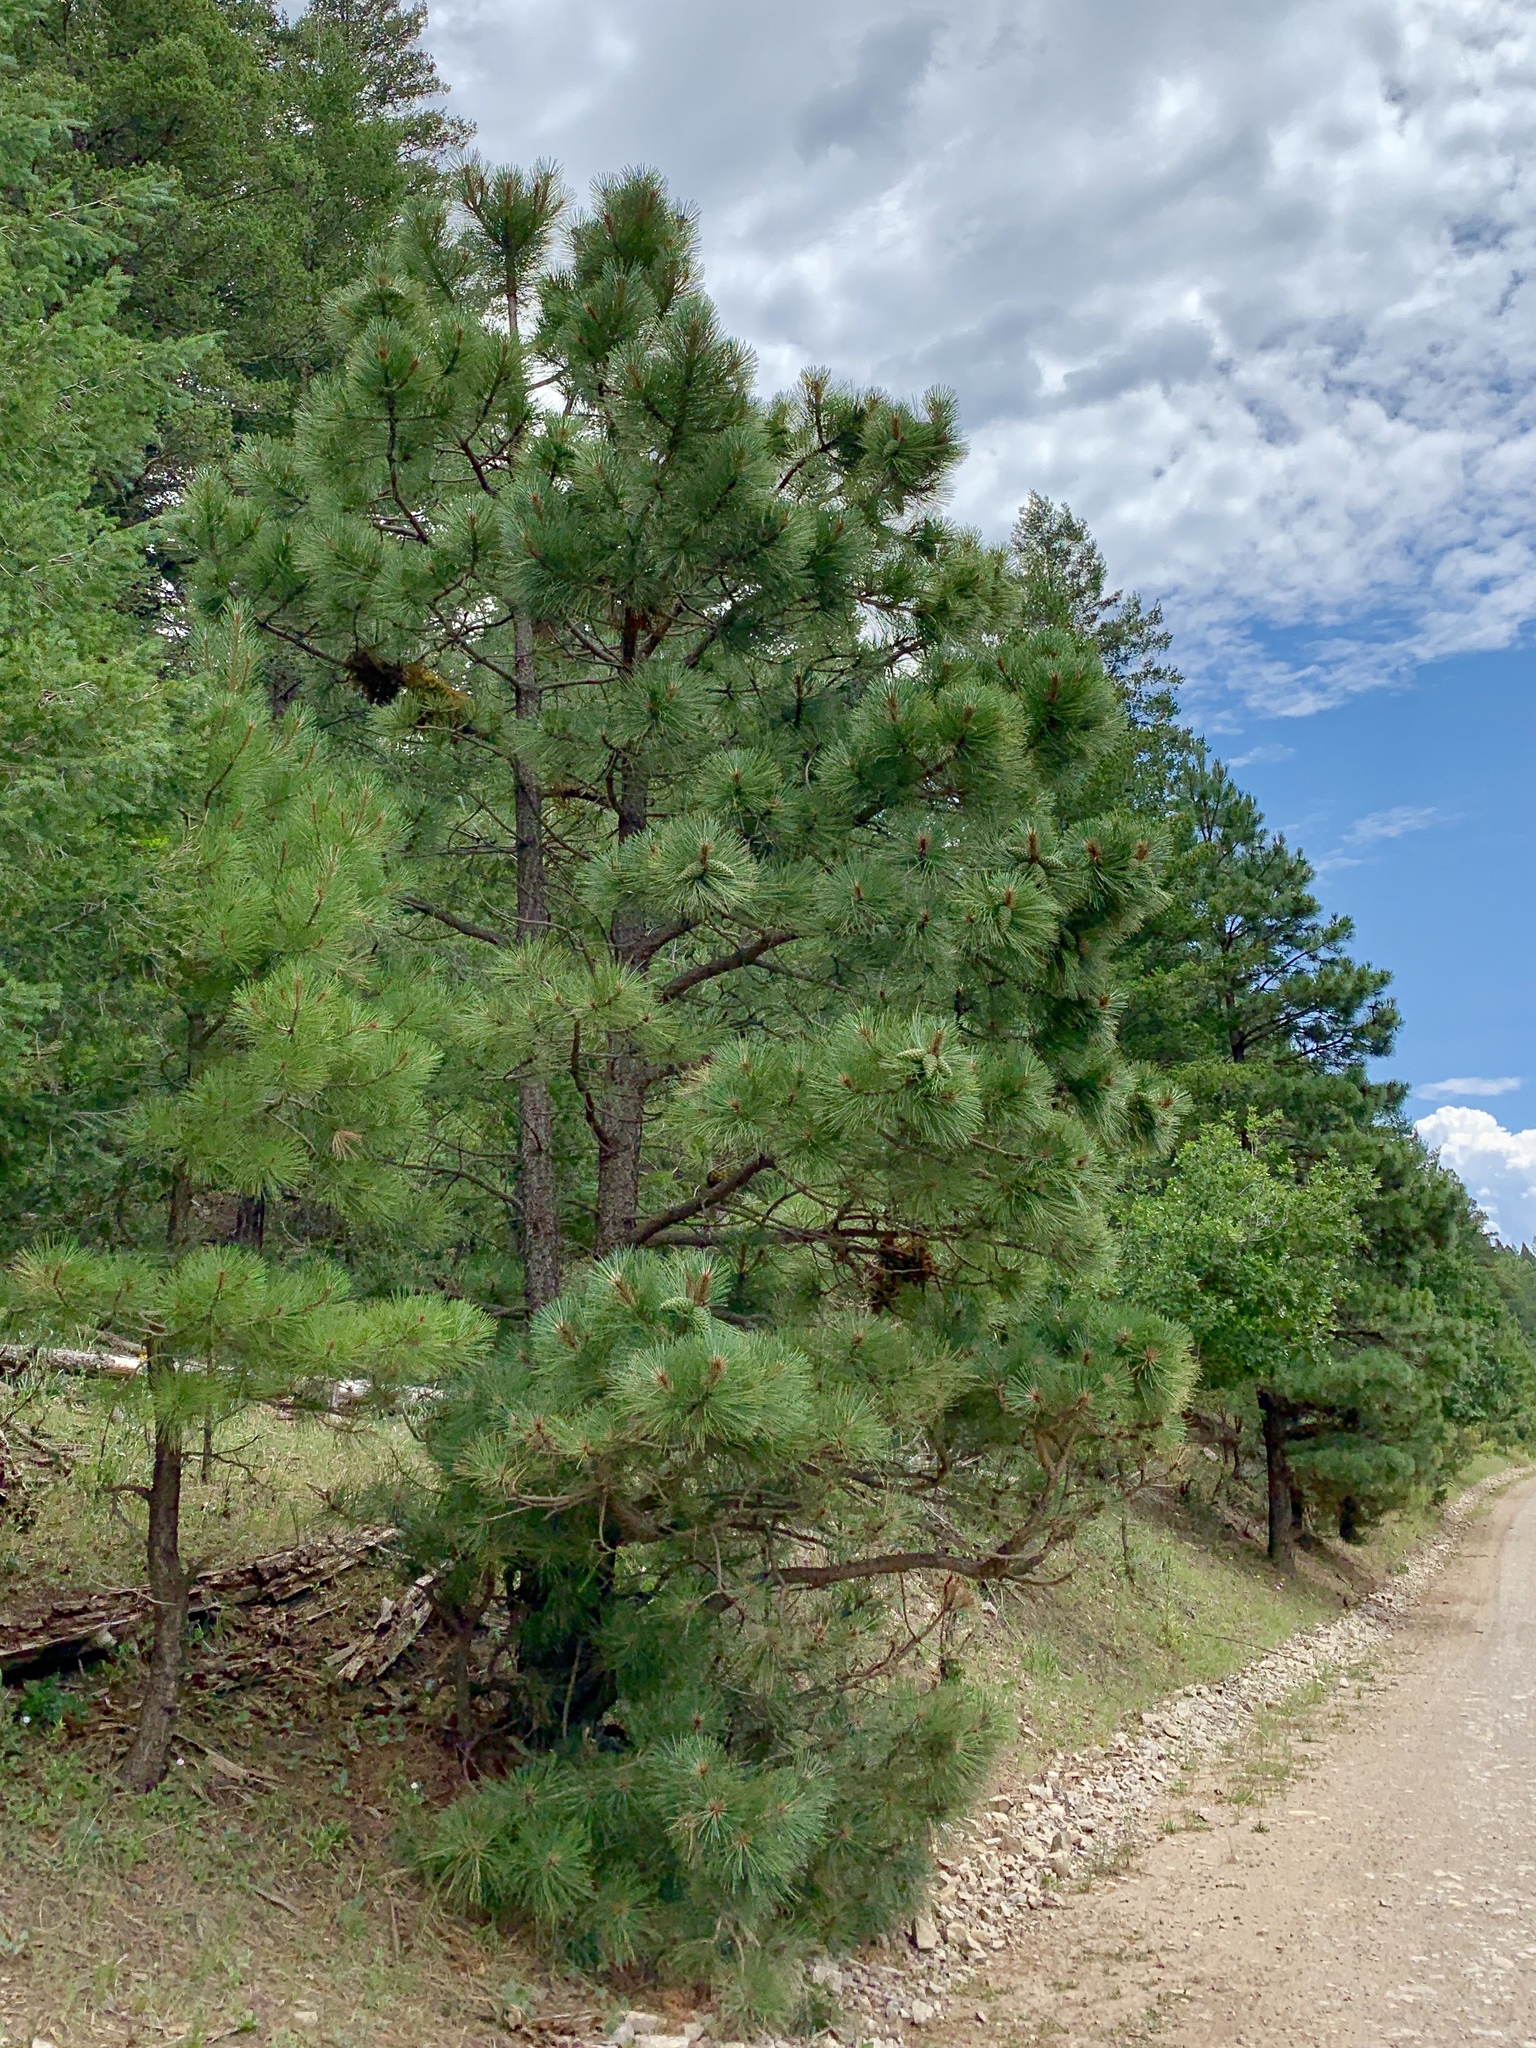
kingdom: Plantae
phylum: Tracheophyta
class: Pinopsida
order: Pinales
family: Pinaceae
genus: Pinus
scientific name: Pinus ponderosa
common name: Western yellow-pine
